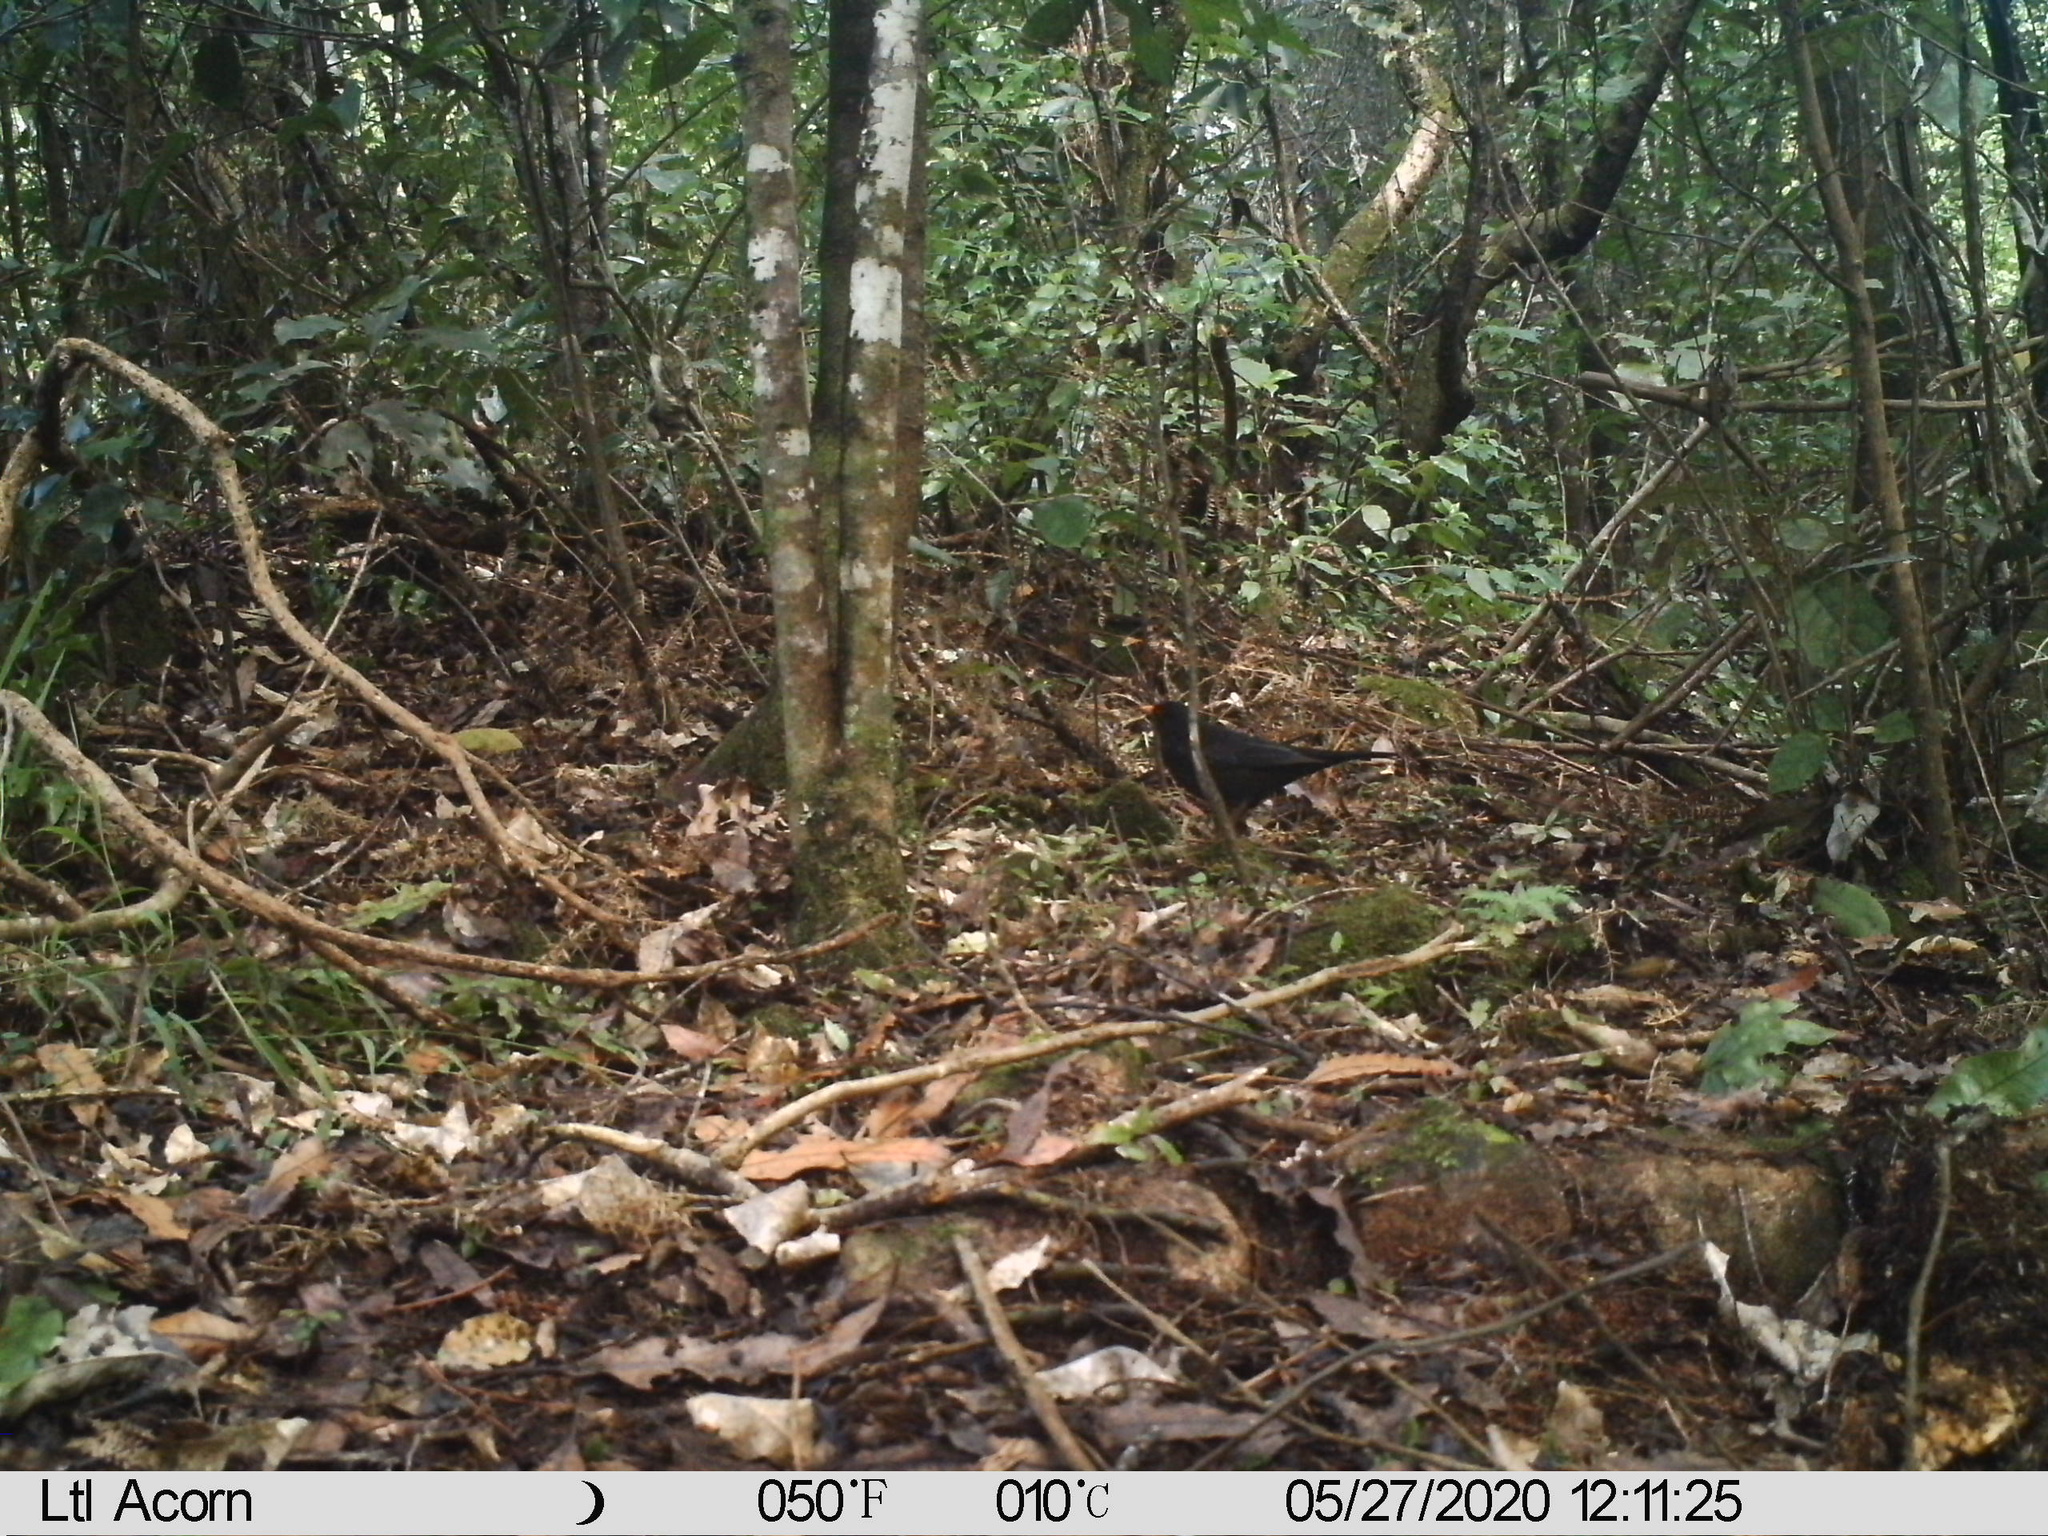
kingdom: Animalia
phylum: Chordata
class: Aves
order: Passeriformes
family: Turdidae
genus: Turdus
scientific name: Turdus merula
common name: Common blackbird
